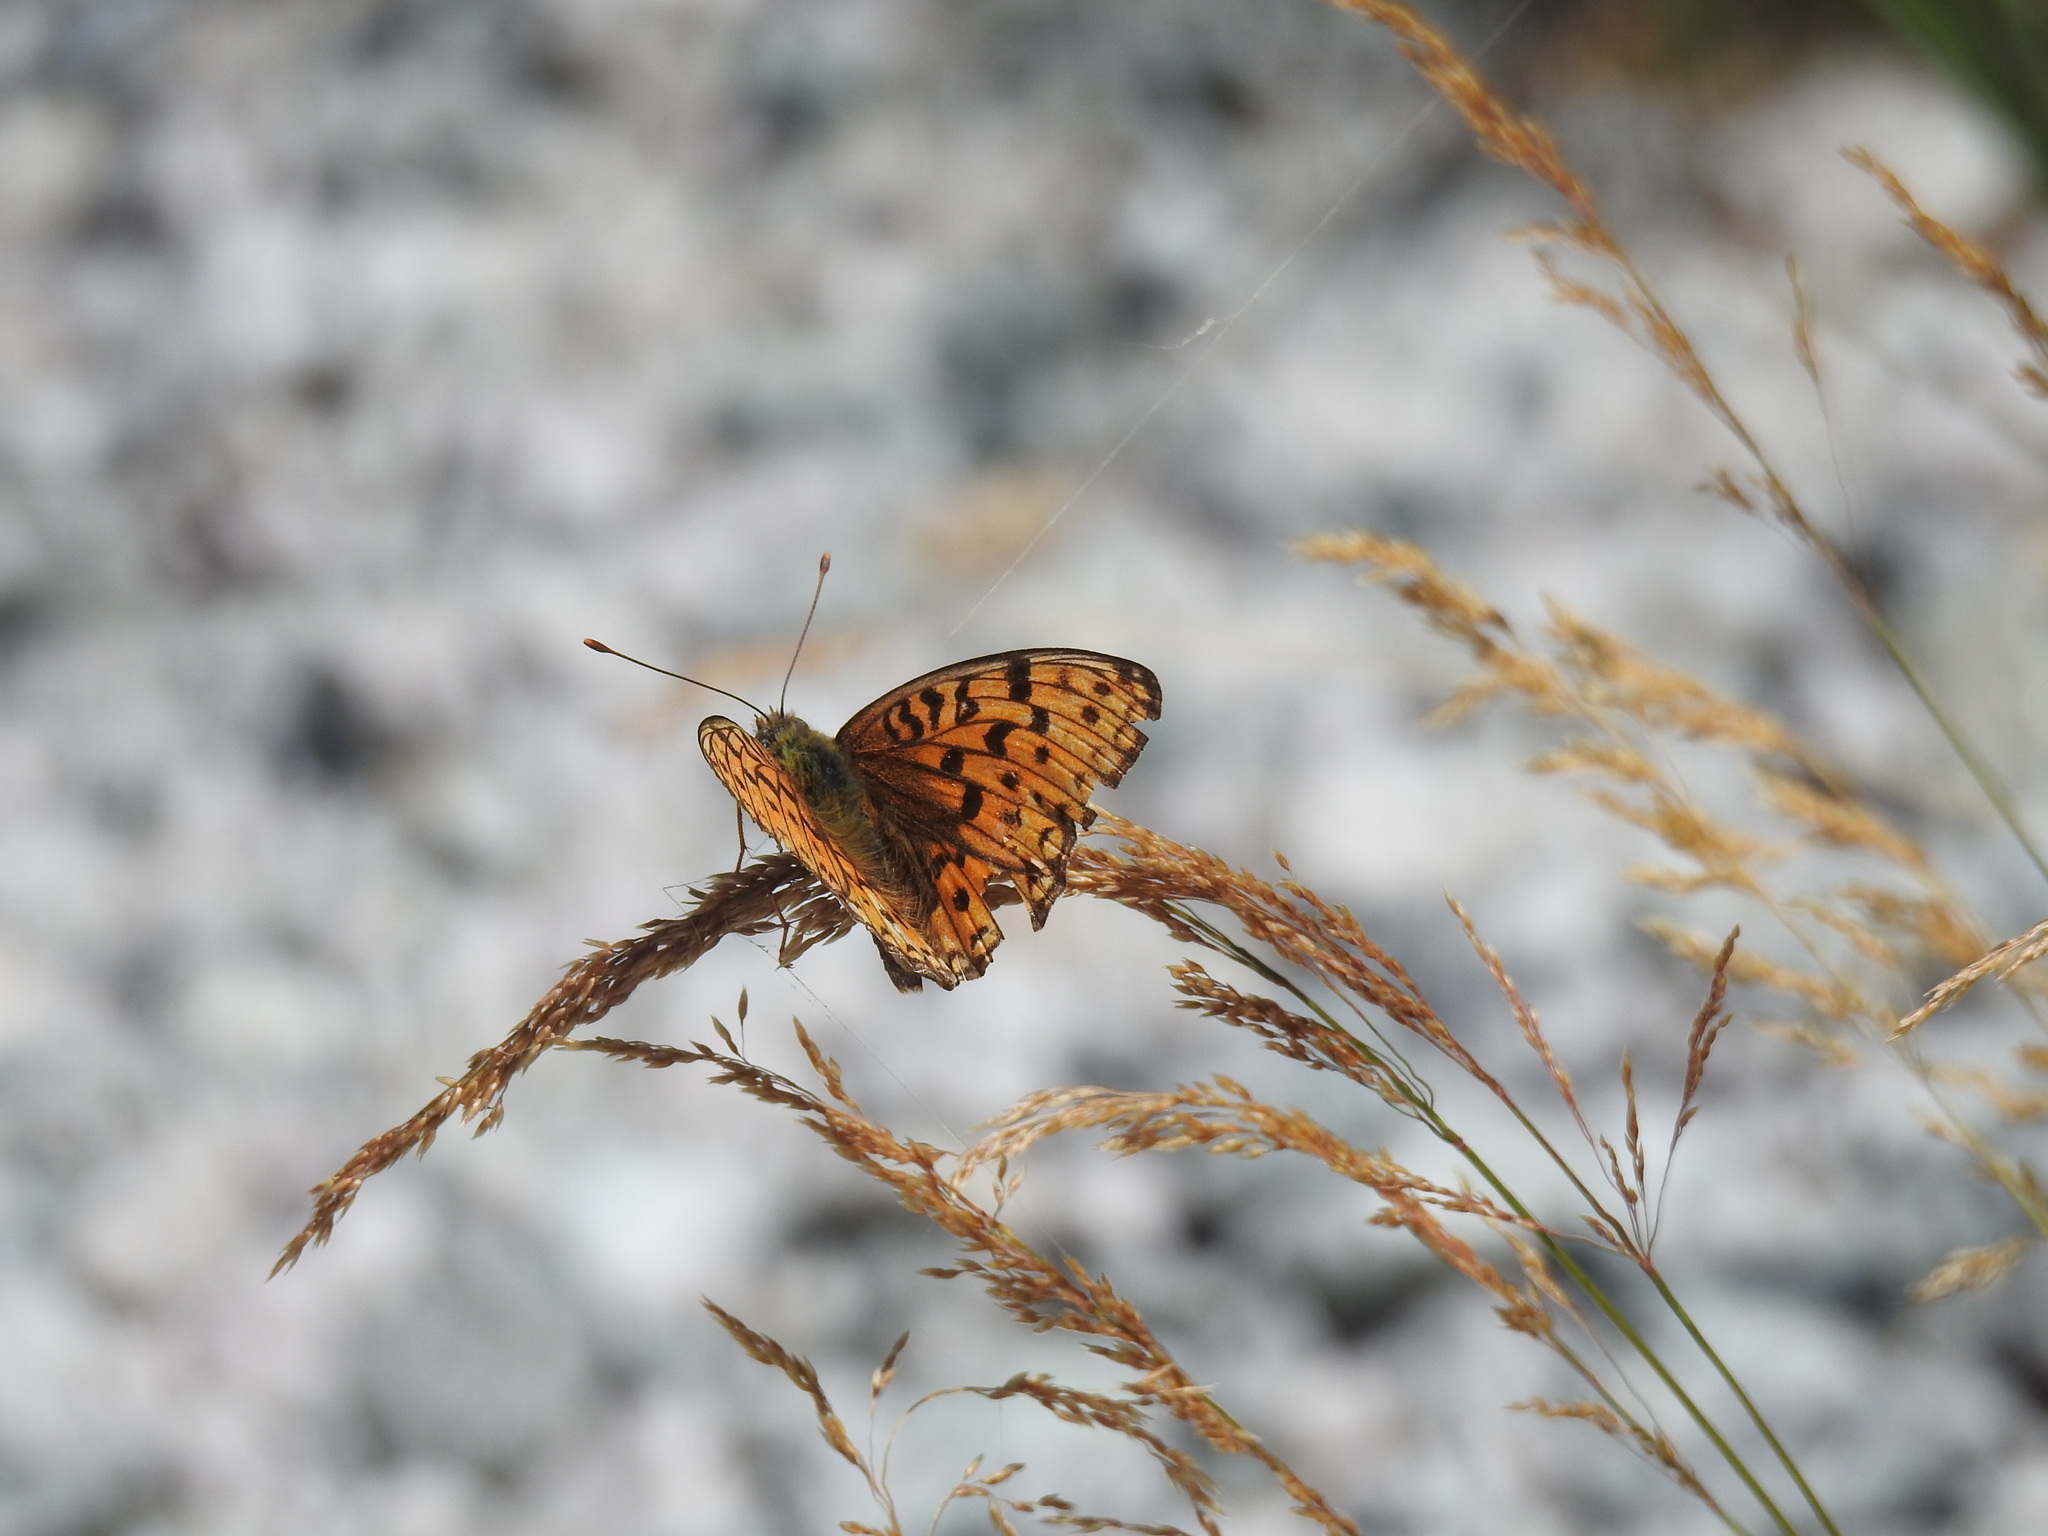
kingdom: Animalia
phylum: Arthropoda
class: Insecta
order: Lepidoptera
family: Nymphalidae
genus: Fabriciana
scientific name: Fabriciana niobe
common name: Niobe fritillary
